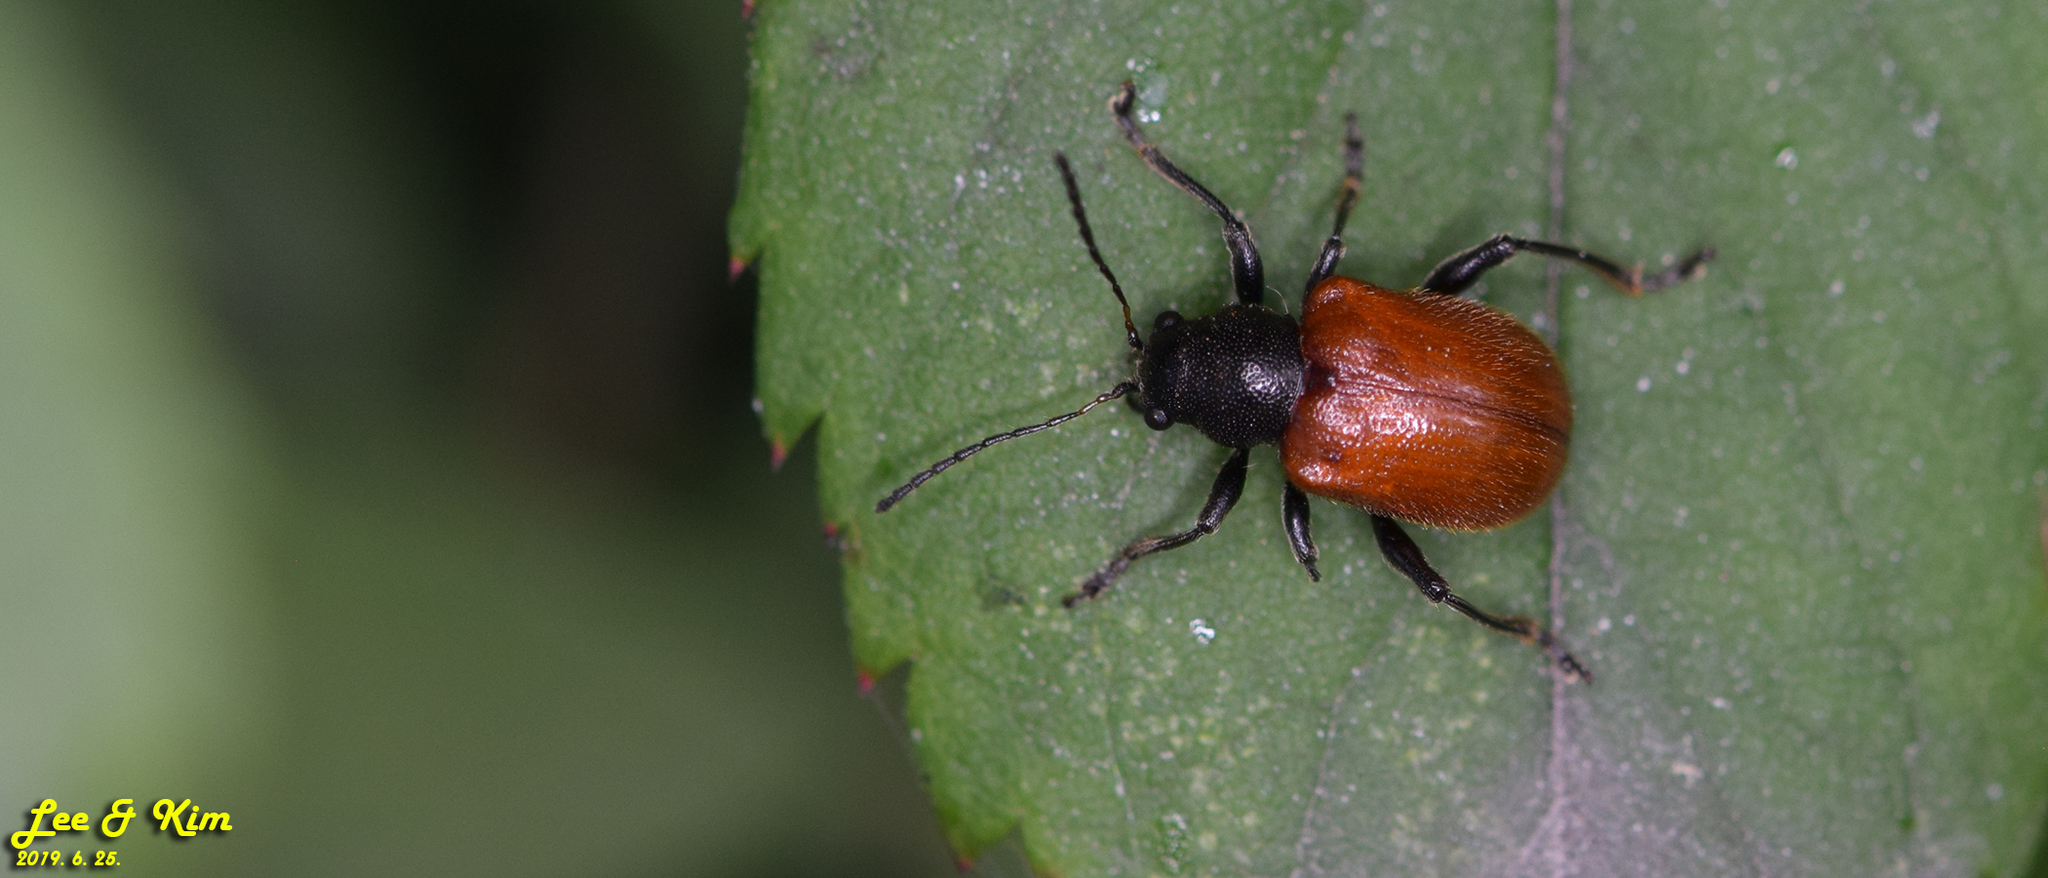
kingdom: Animalia
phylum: Arthropoda
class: Insecta
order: Coleoptera
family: Chrysomelidae
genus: Aoria
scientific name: Aoria
